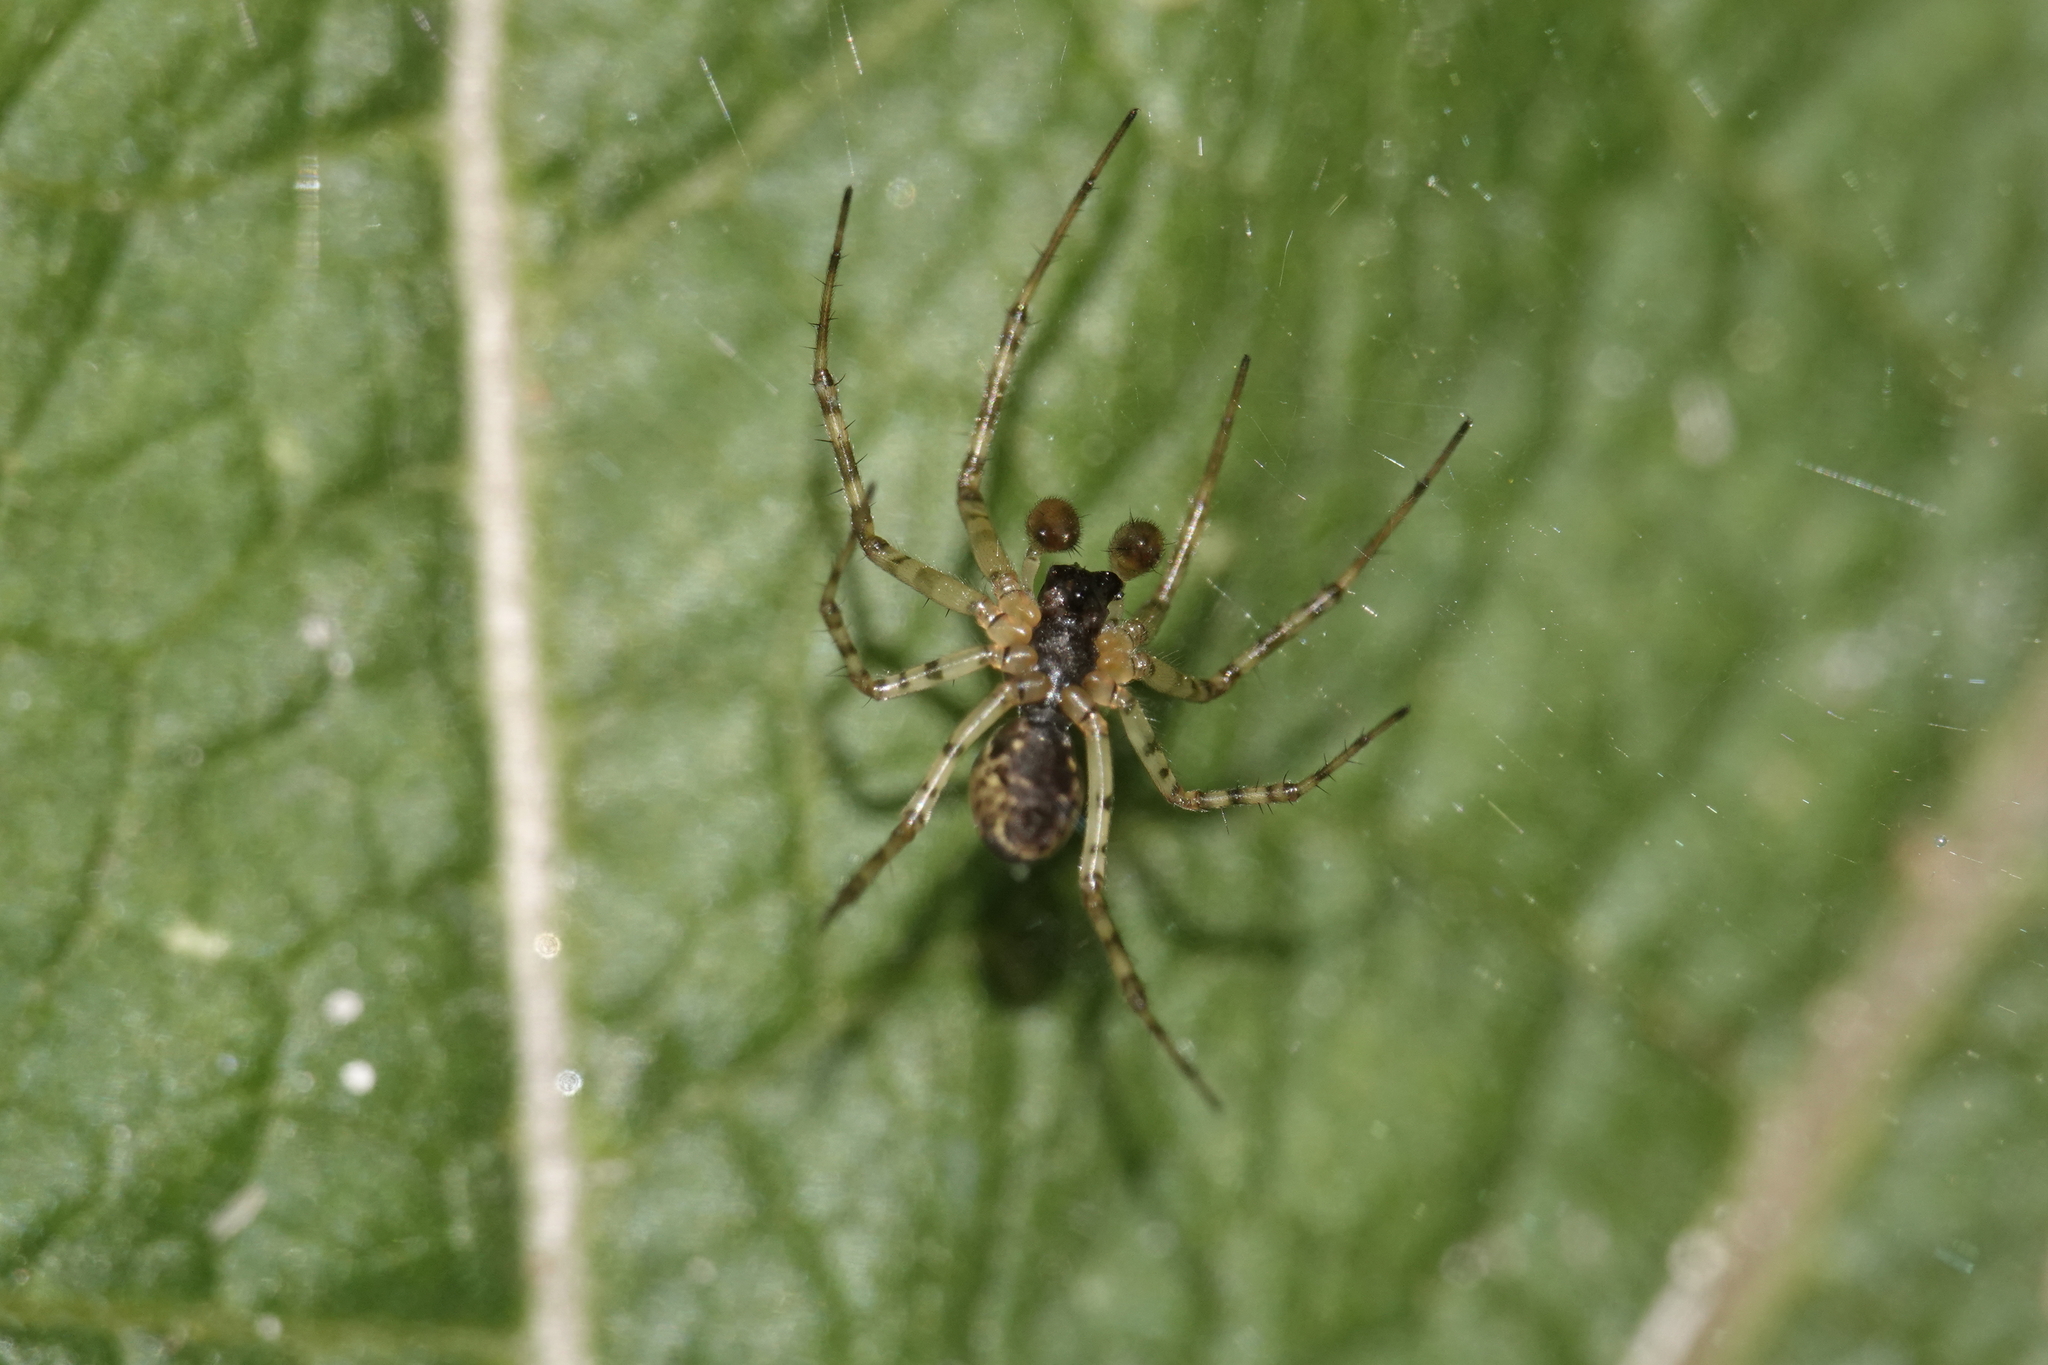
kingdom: Animalia
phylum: Arthropoda
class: Arachnida
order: Araneae
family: Linyphiidae
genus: Neriene
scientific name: Neriene montana
